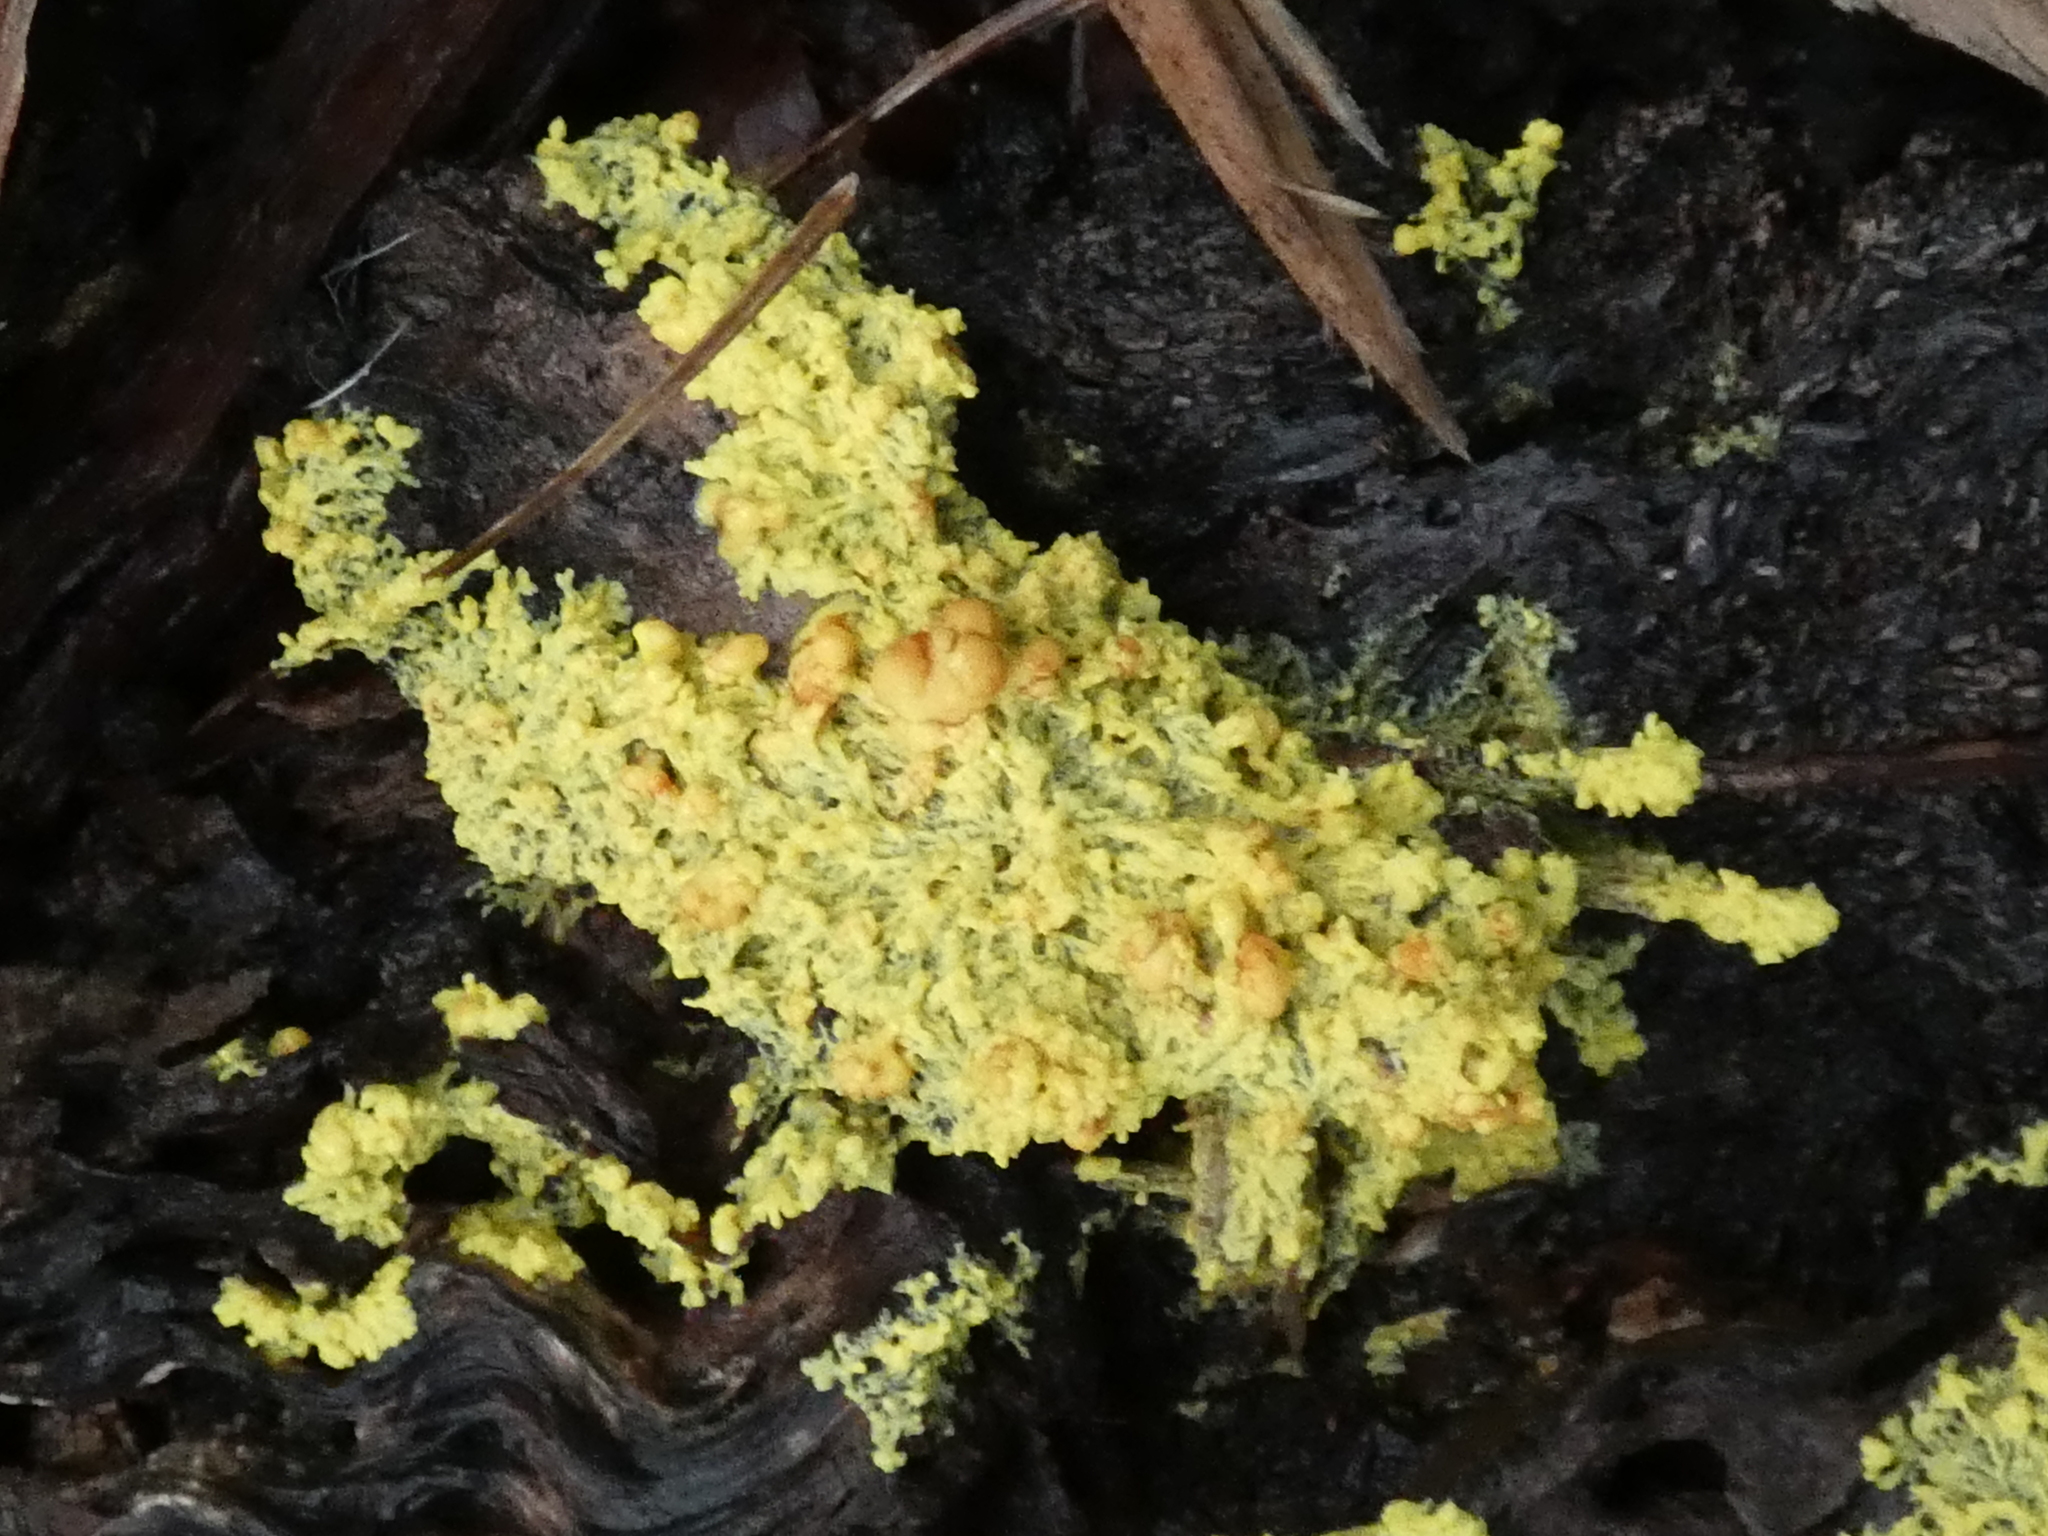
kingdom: Protozoa
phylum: Mycetozoa
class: Myxomycetes
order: Physarales
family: Physaraceae
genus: Fuligo
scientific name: Fuligo septica
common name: Dog vomit slime mold
